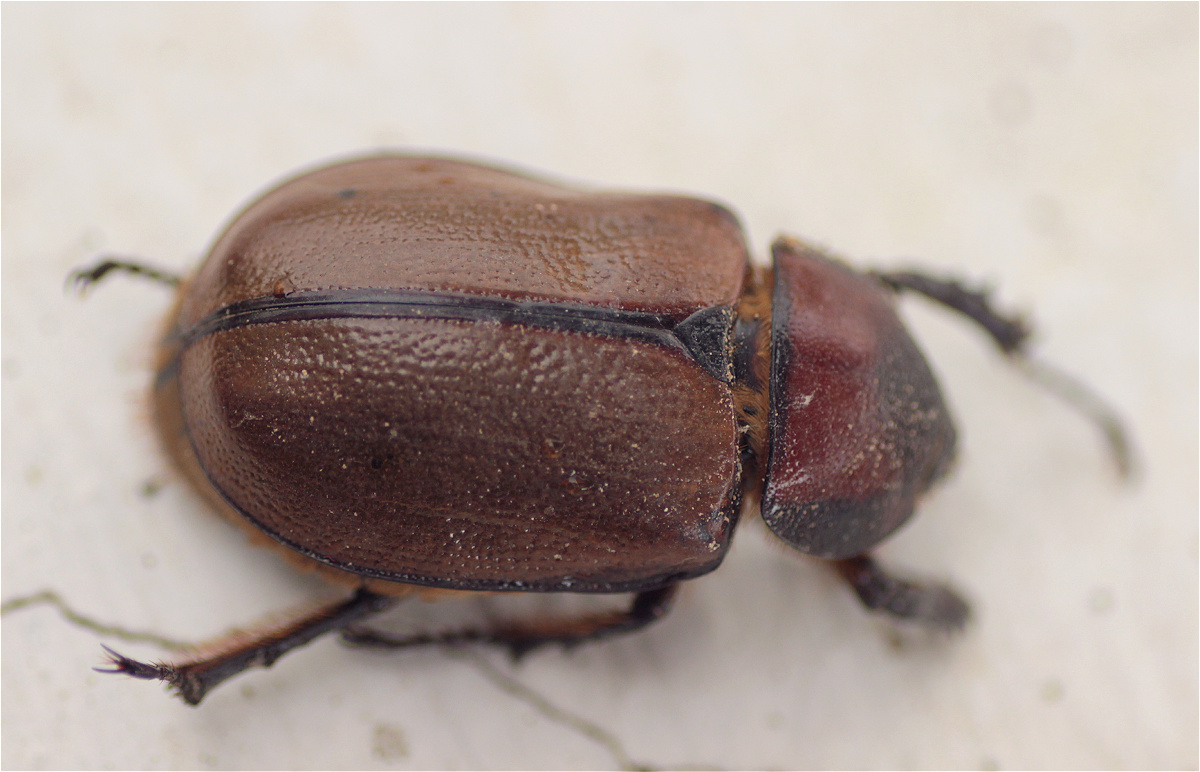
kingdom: Animalia
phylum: Arthropoda
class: Insecta
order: Coleoptera
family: Scarabaeidae
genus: Golofa
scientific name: Golofa eacus
